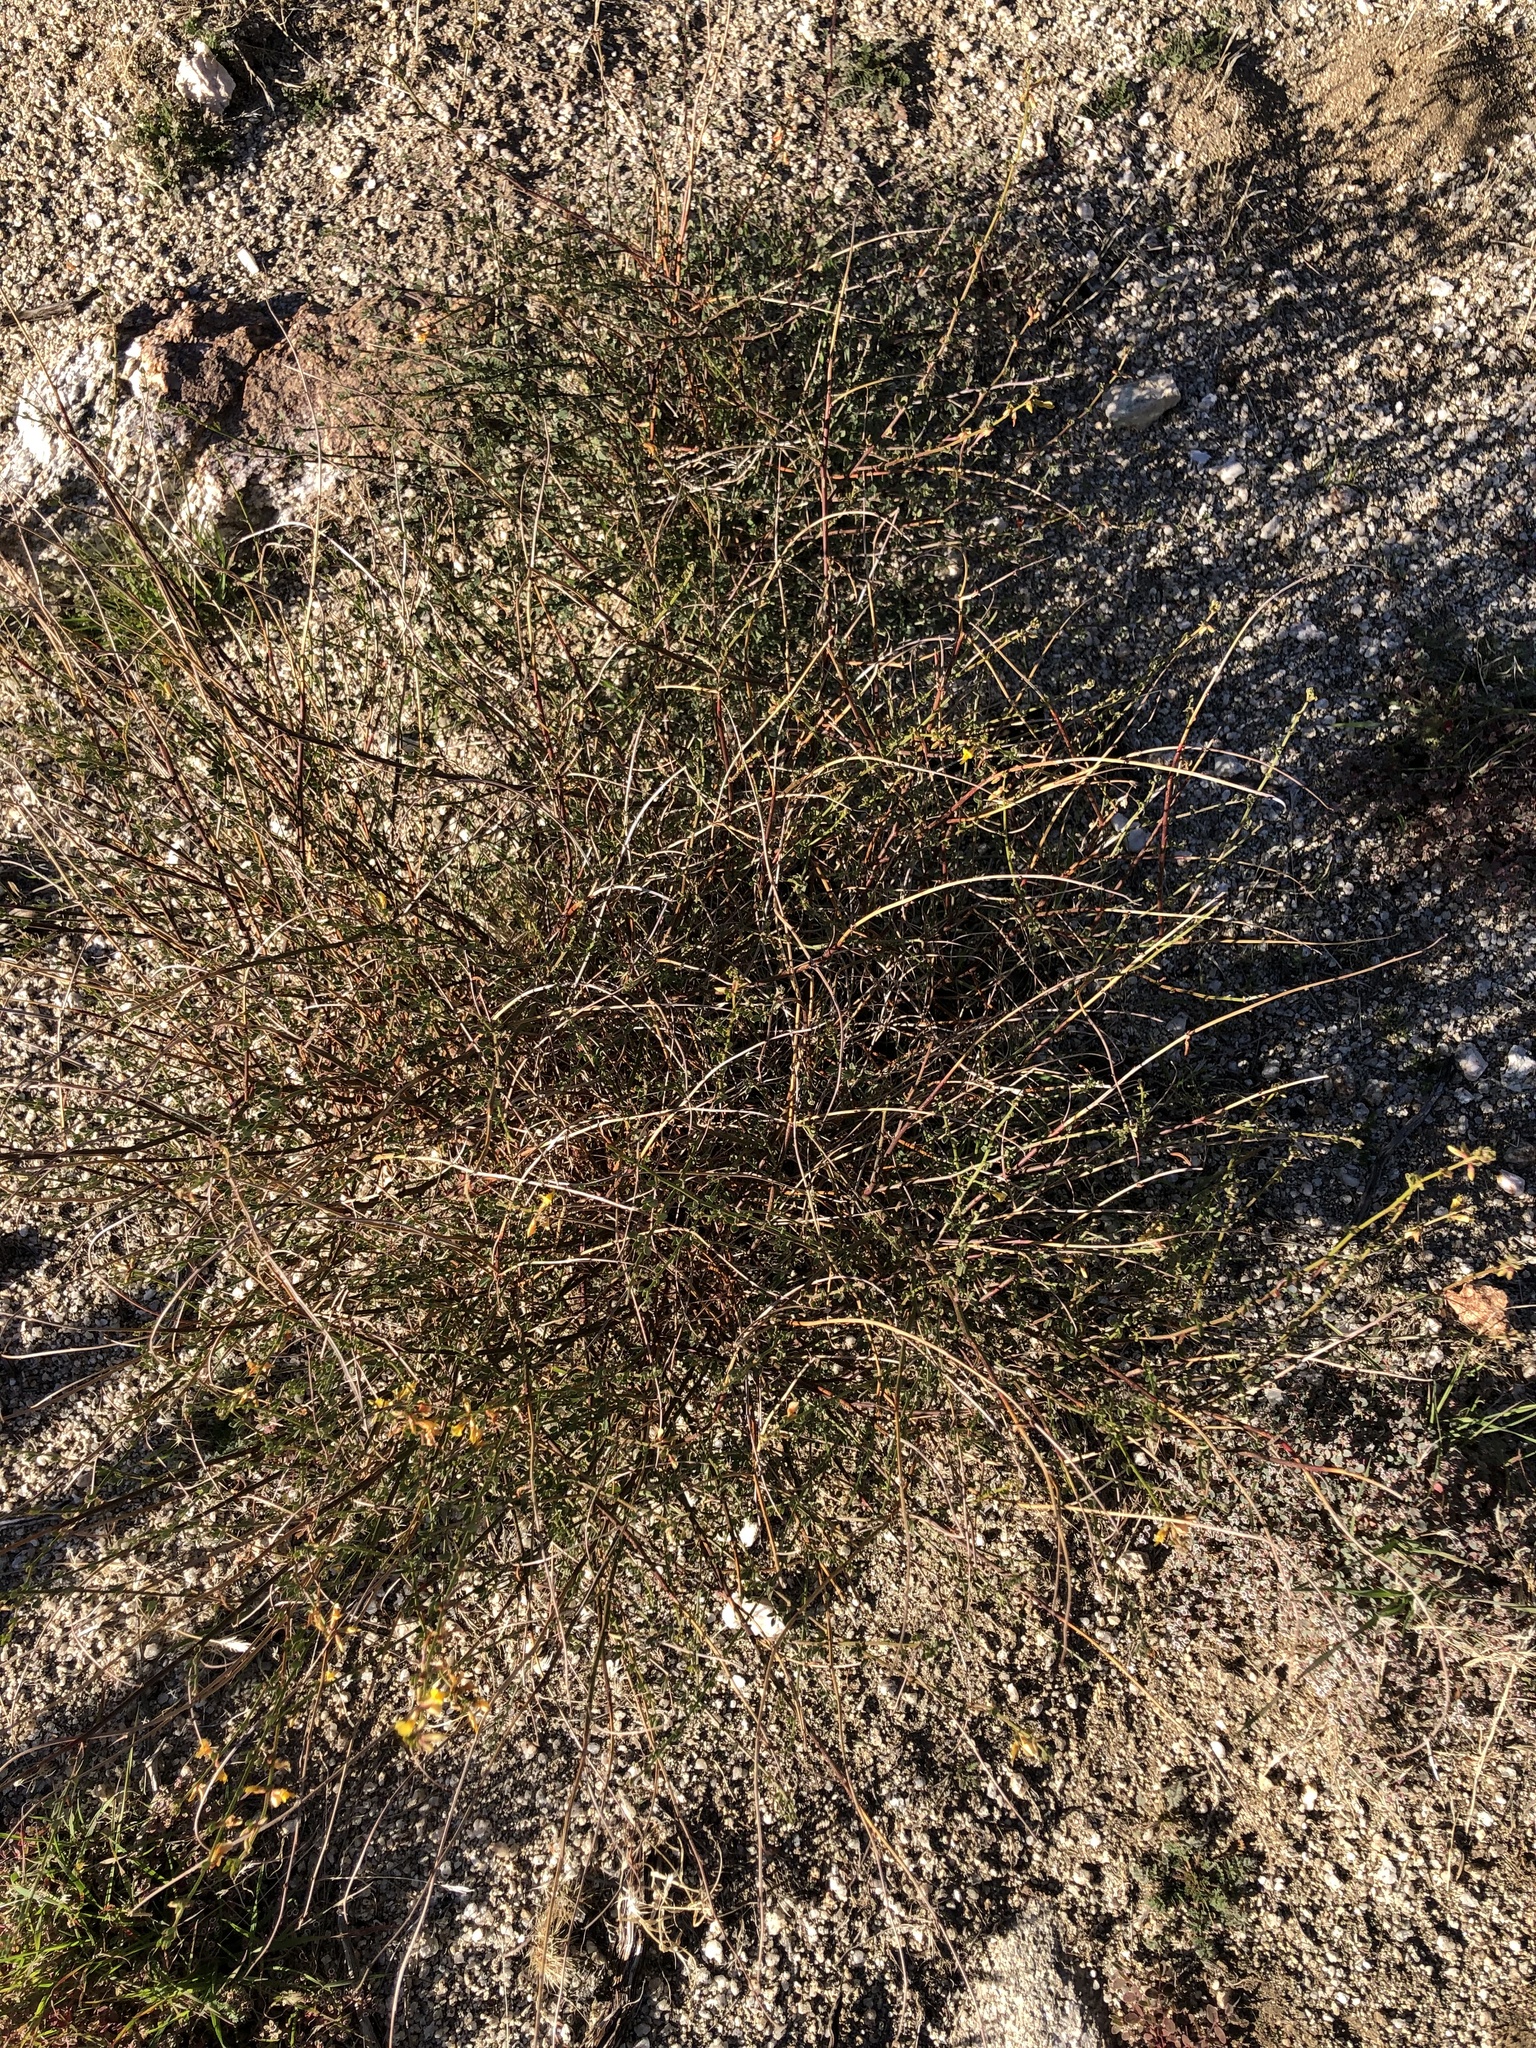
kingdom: Plantae
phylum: Tracheophyta
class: Magnoliopsida
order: Fabales
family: Fabaceae
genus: Acmispon
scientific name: Acmispon glaber
